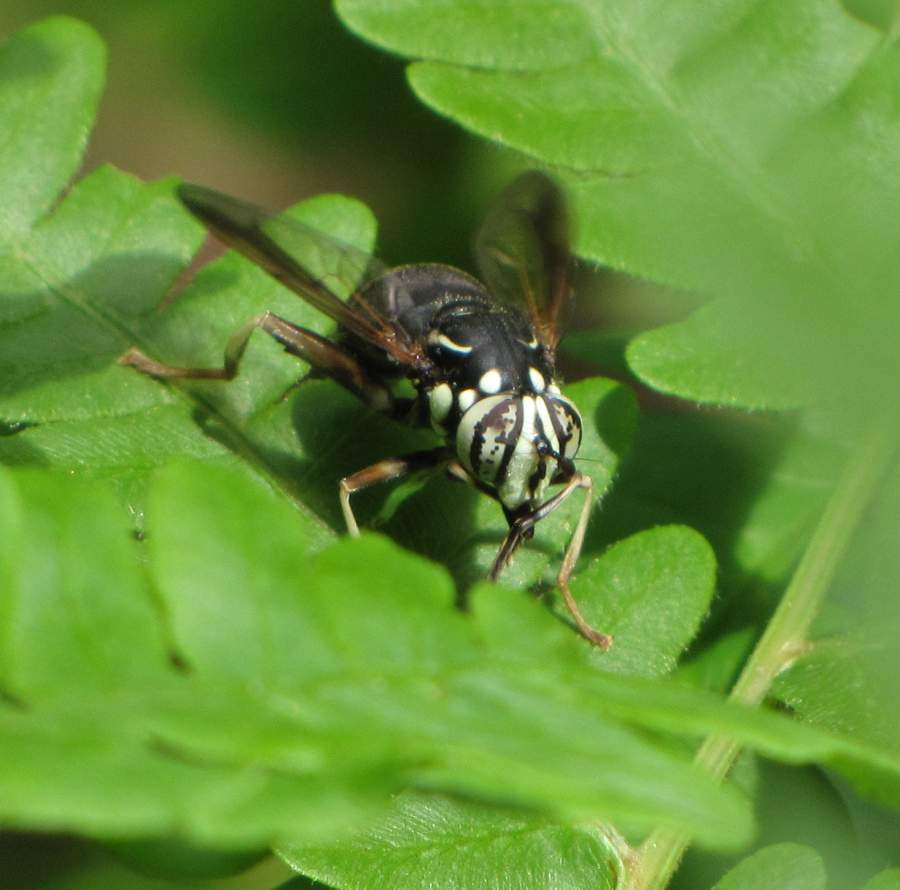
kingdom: Animalia
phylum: Arthropoda
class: Insecta
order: Diptera
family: Syrphidae
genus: Spilomyia
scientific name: Spilomyia fusca
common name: Bald-faced hornet fly
